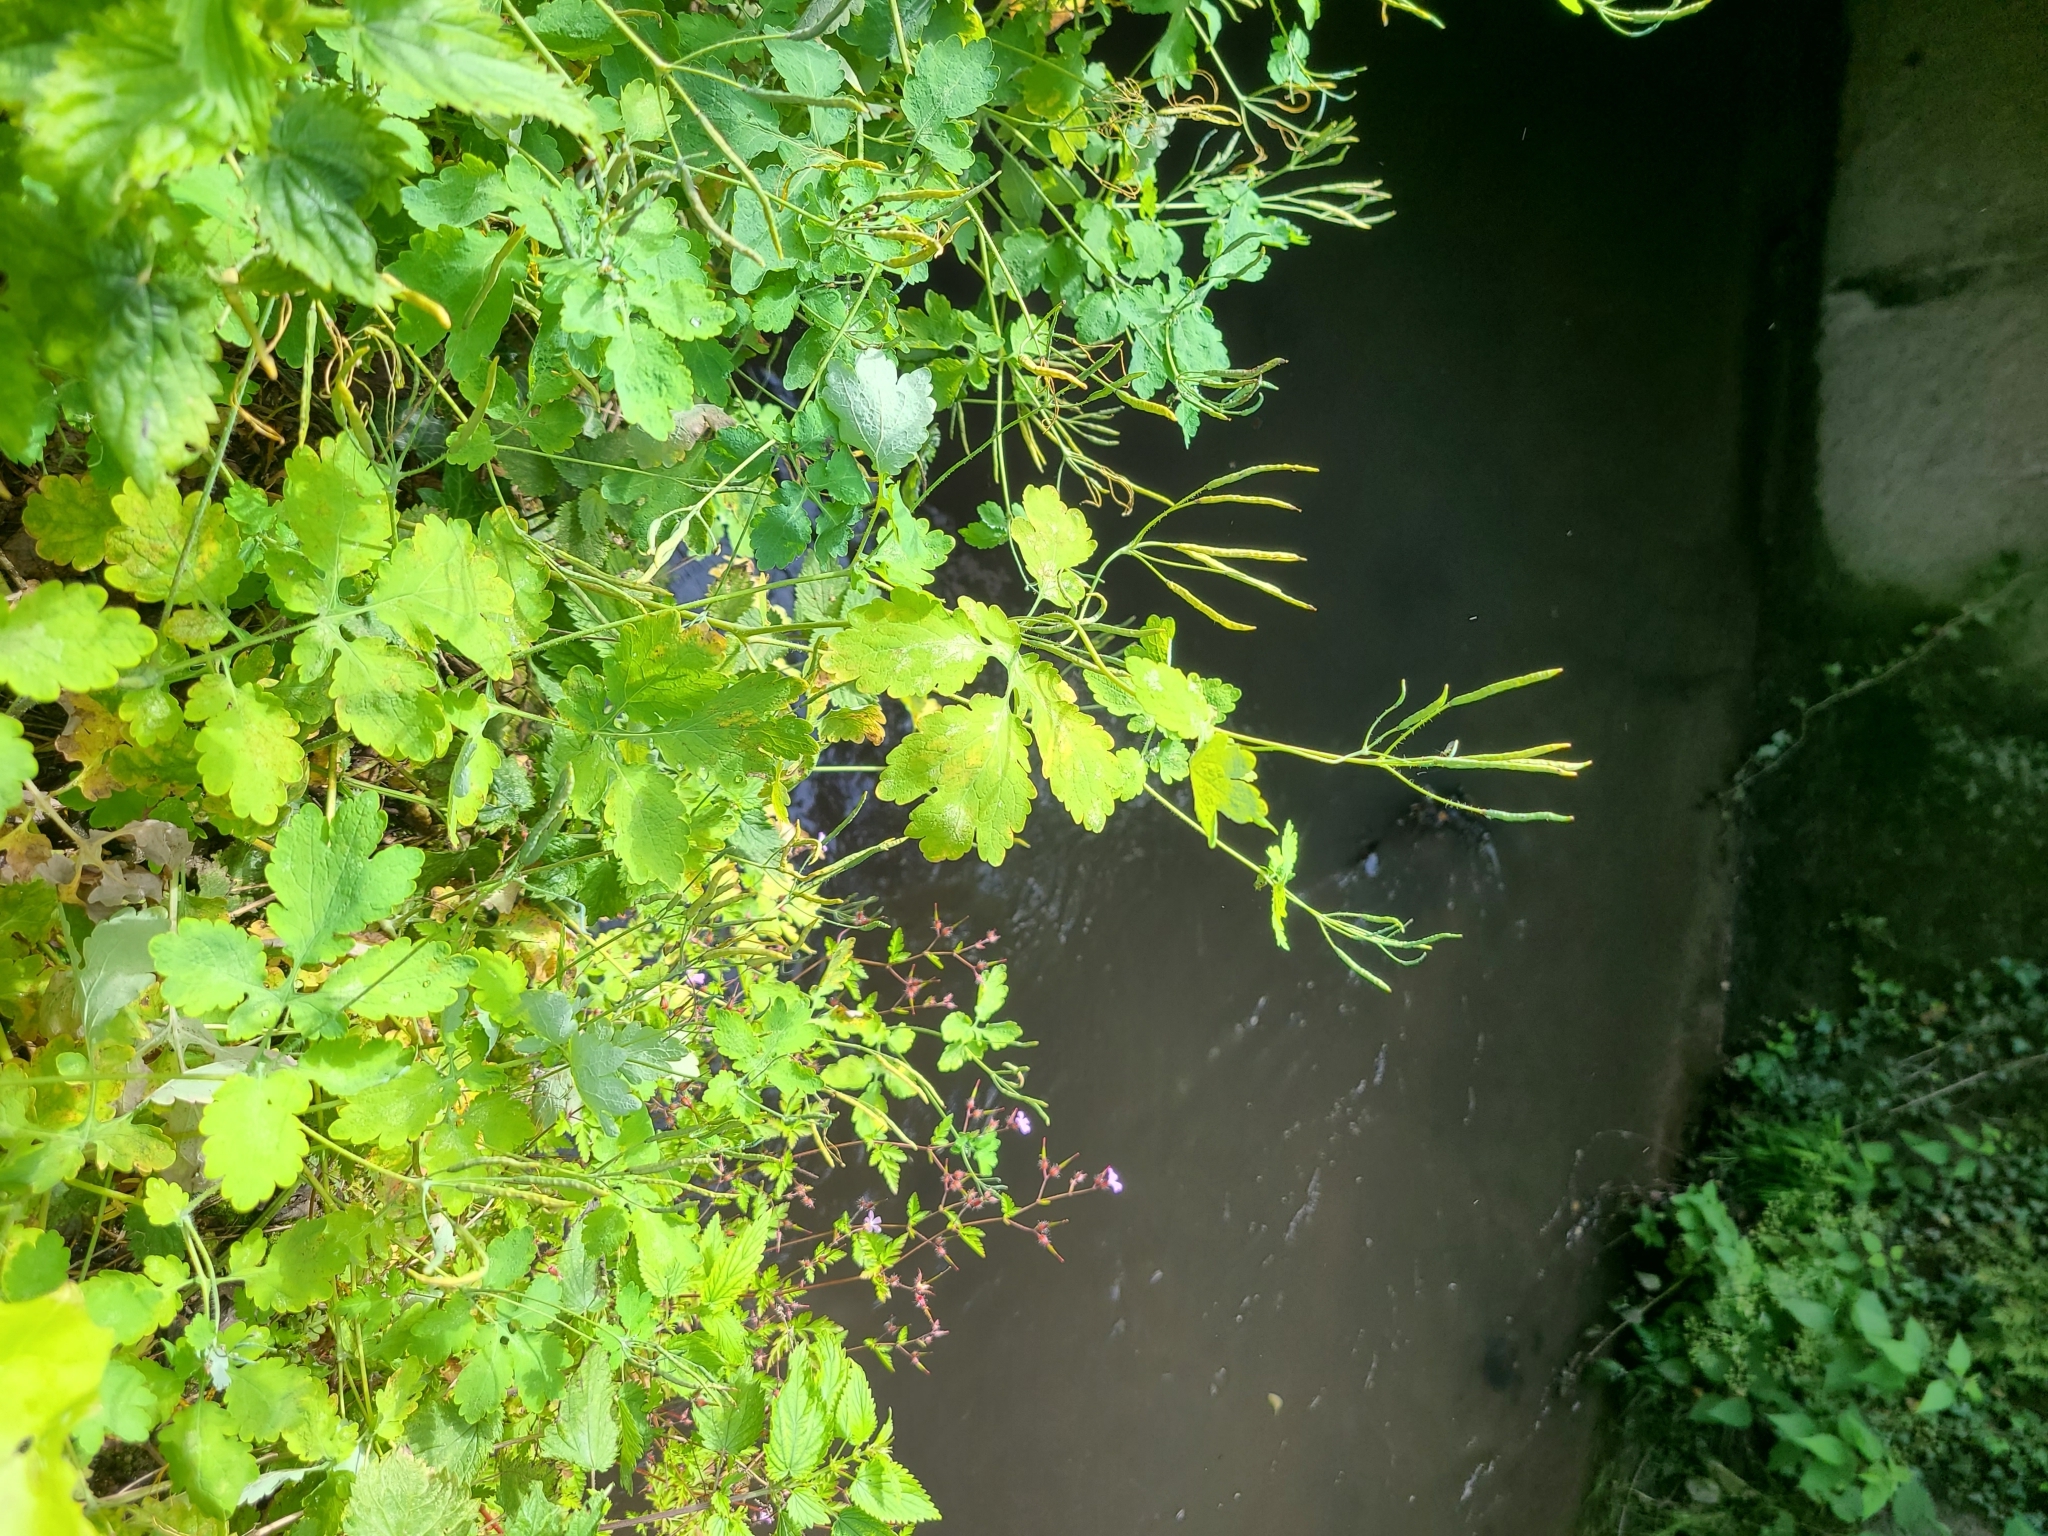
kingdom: Plantae
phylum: Tracheophyta
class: Magnoliopsida
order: Ranunculales
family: Papaveraceae
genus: Chelidonium
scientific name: Chelidonium majus
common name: Greater celandine
